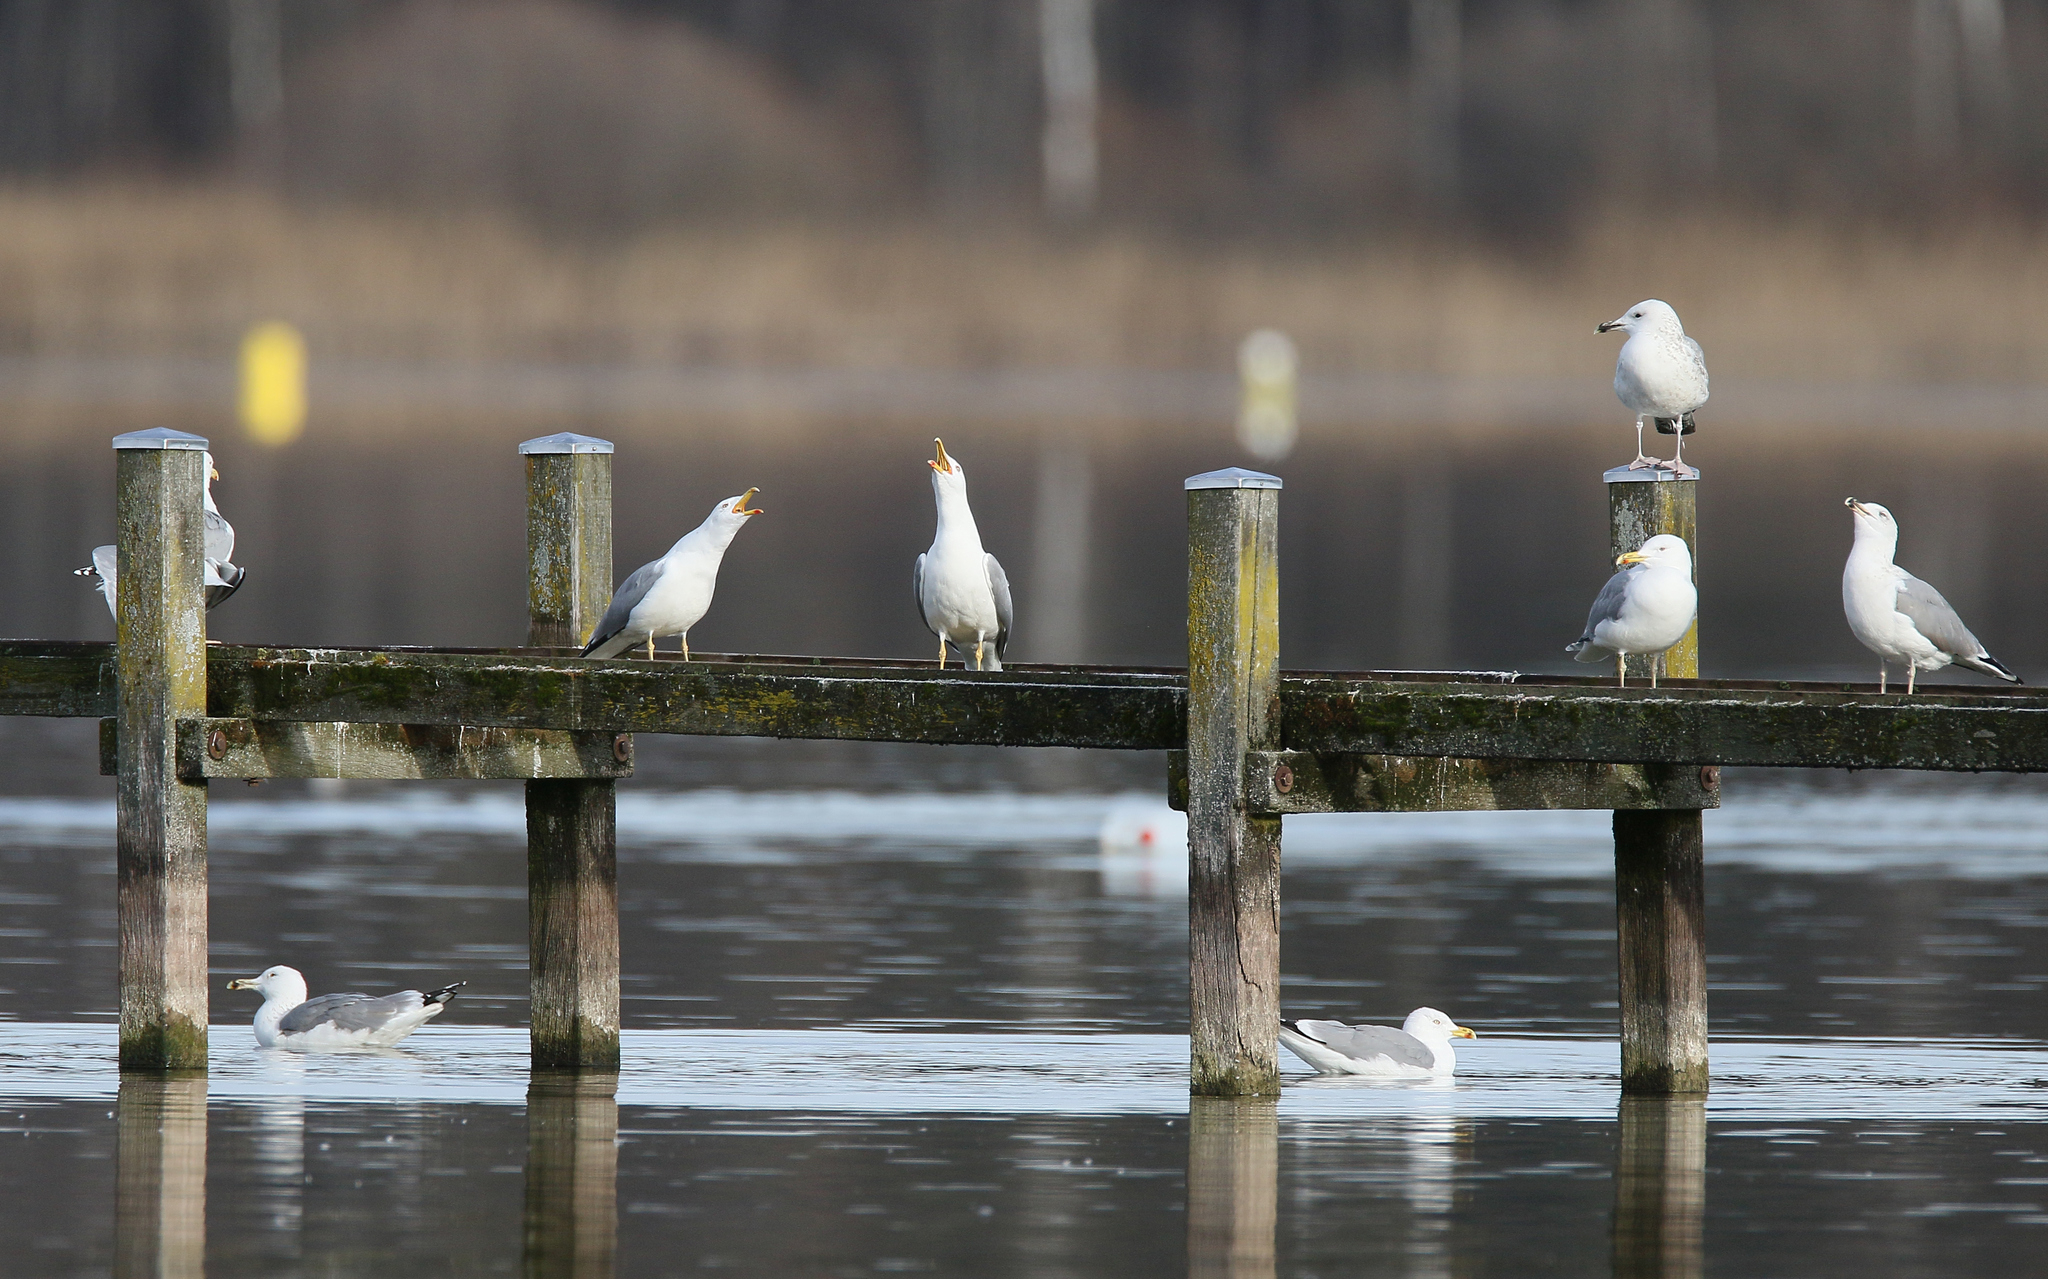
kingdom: Animalia
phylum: Chordata
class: Aves
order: Charadriiformes
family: Laridae
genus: Larus
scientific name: Larus michahellis
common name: Yellow-legged gull
